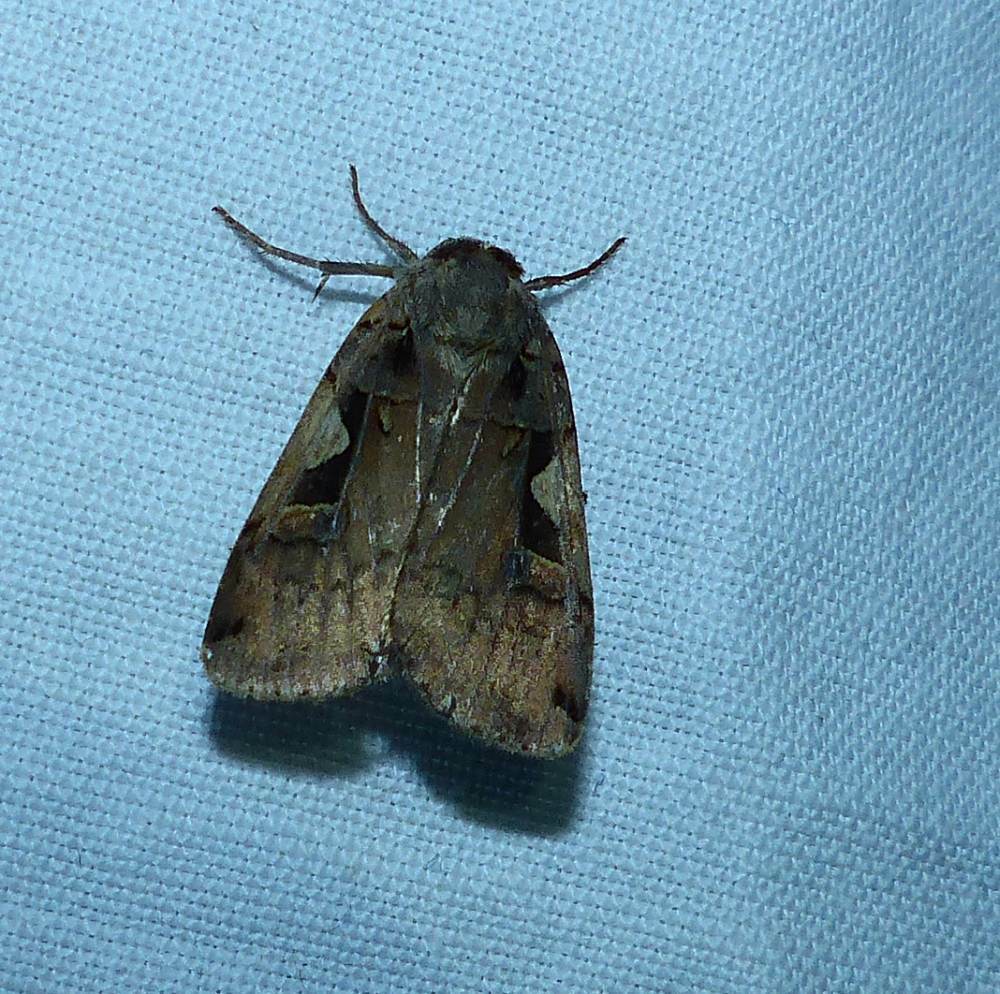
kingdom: Animalia
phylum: Arthropoda
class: Insecta
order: Lepidoptera
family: Noctuidae
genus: Xestia
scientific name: Xestia
